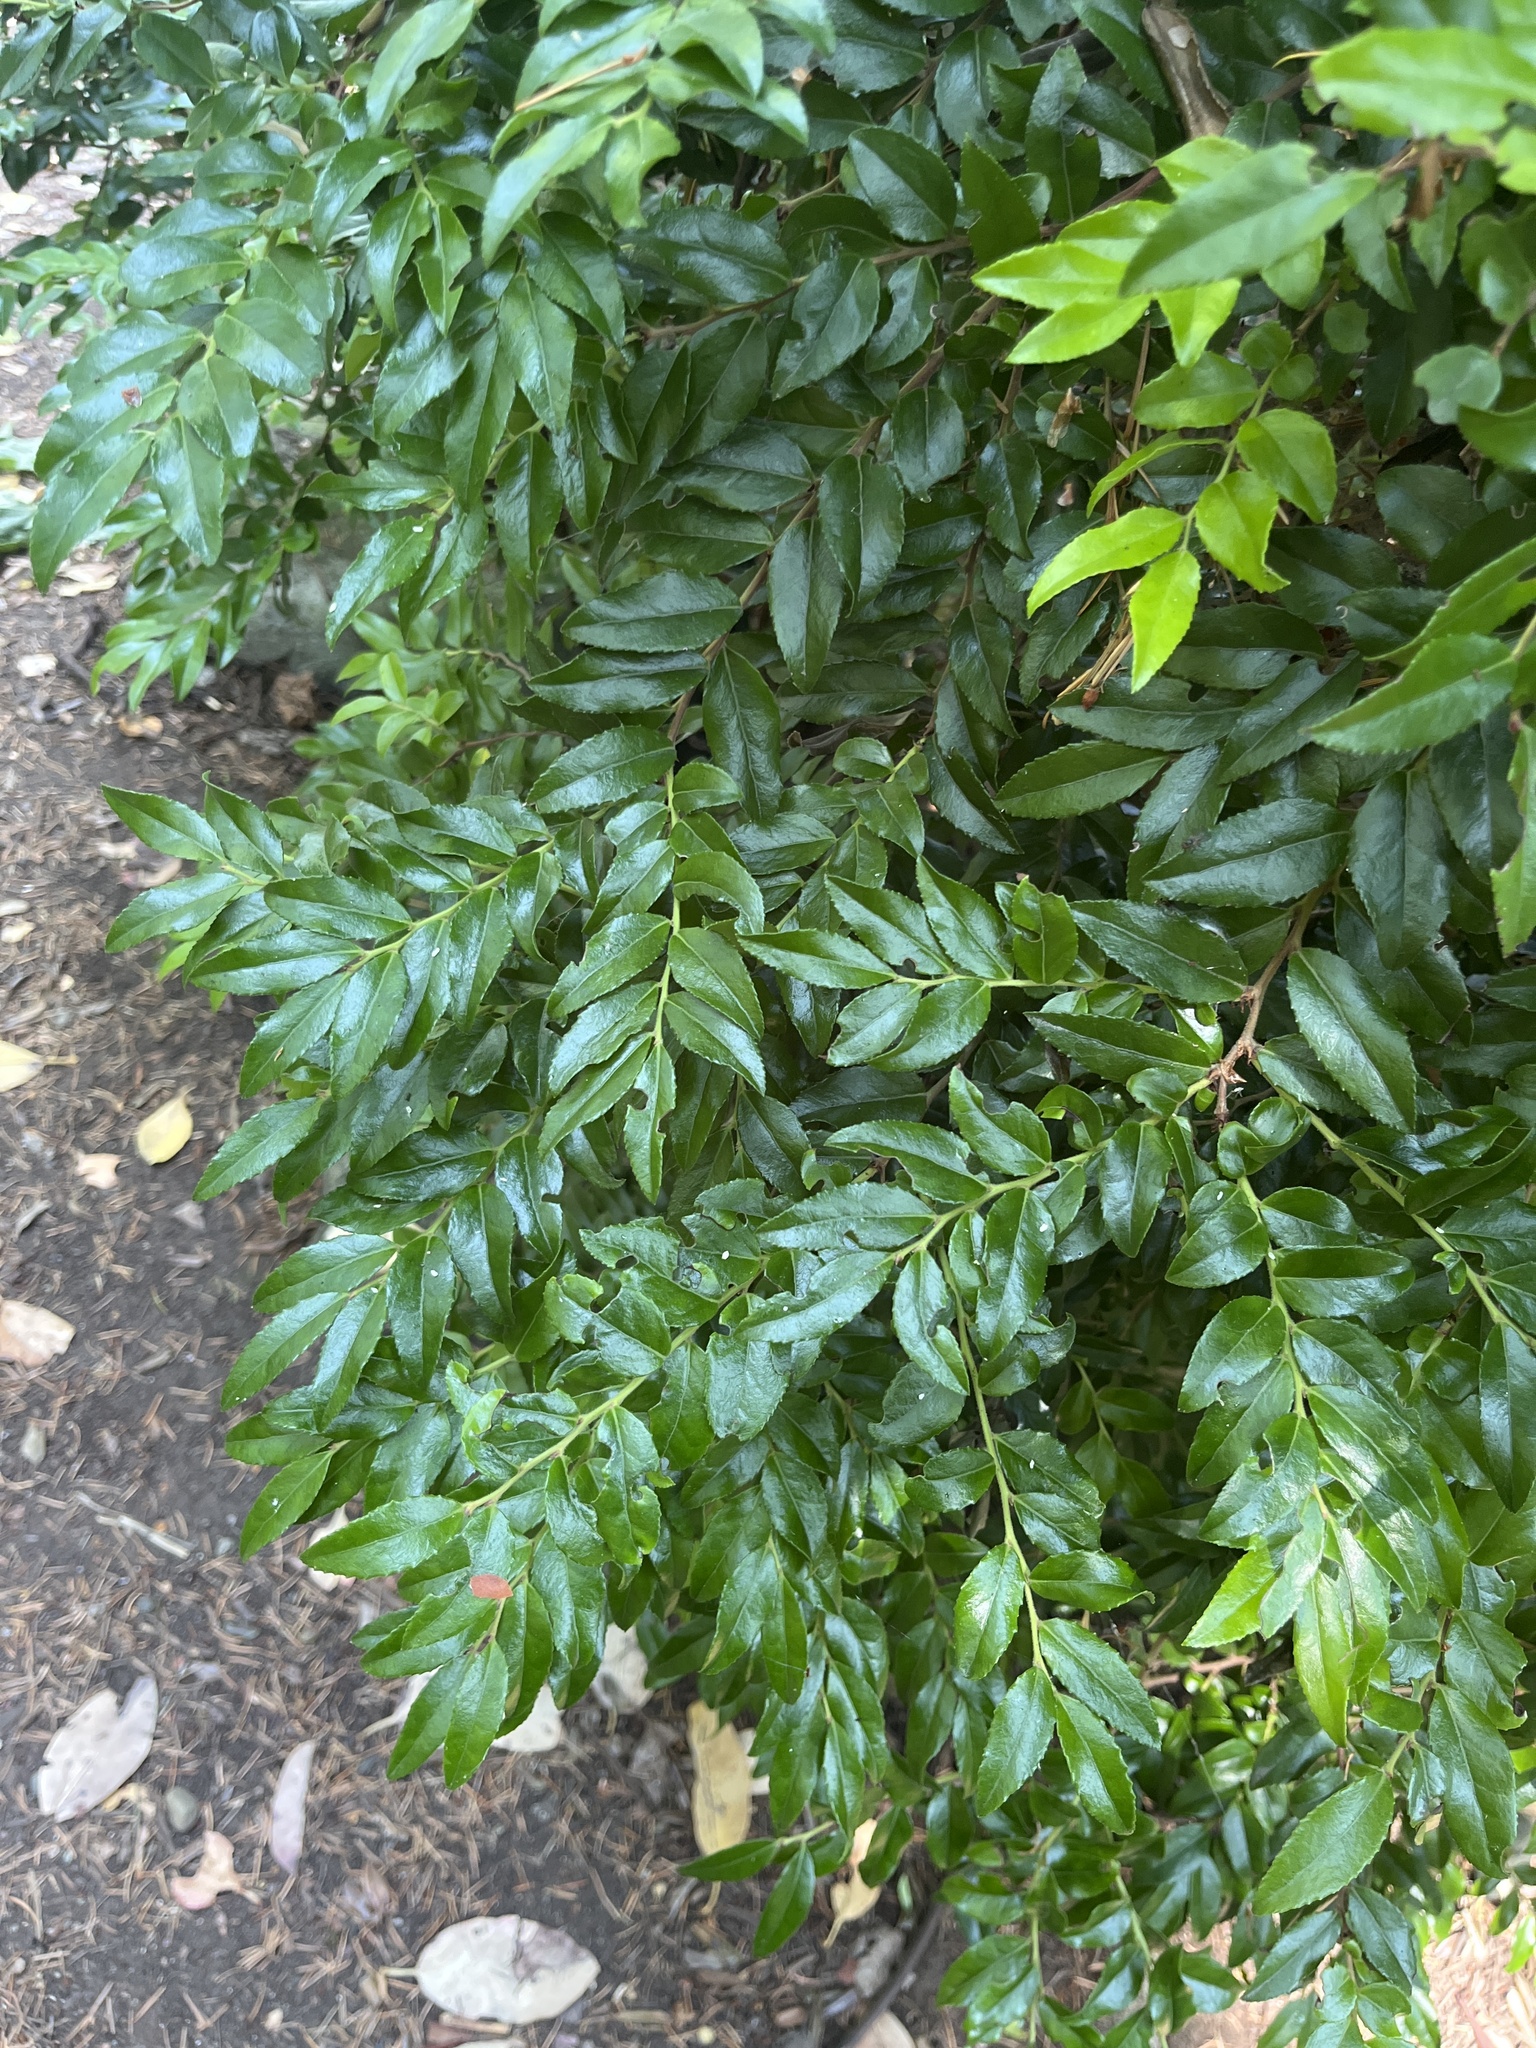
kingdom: Plantae
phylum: Tracheophyta
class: Magnoliopsida
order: Ericales
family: Ericaceae
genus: Vaccinium
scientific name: Vaccinium ovatum
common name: California-huckleberry
